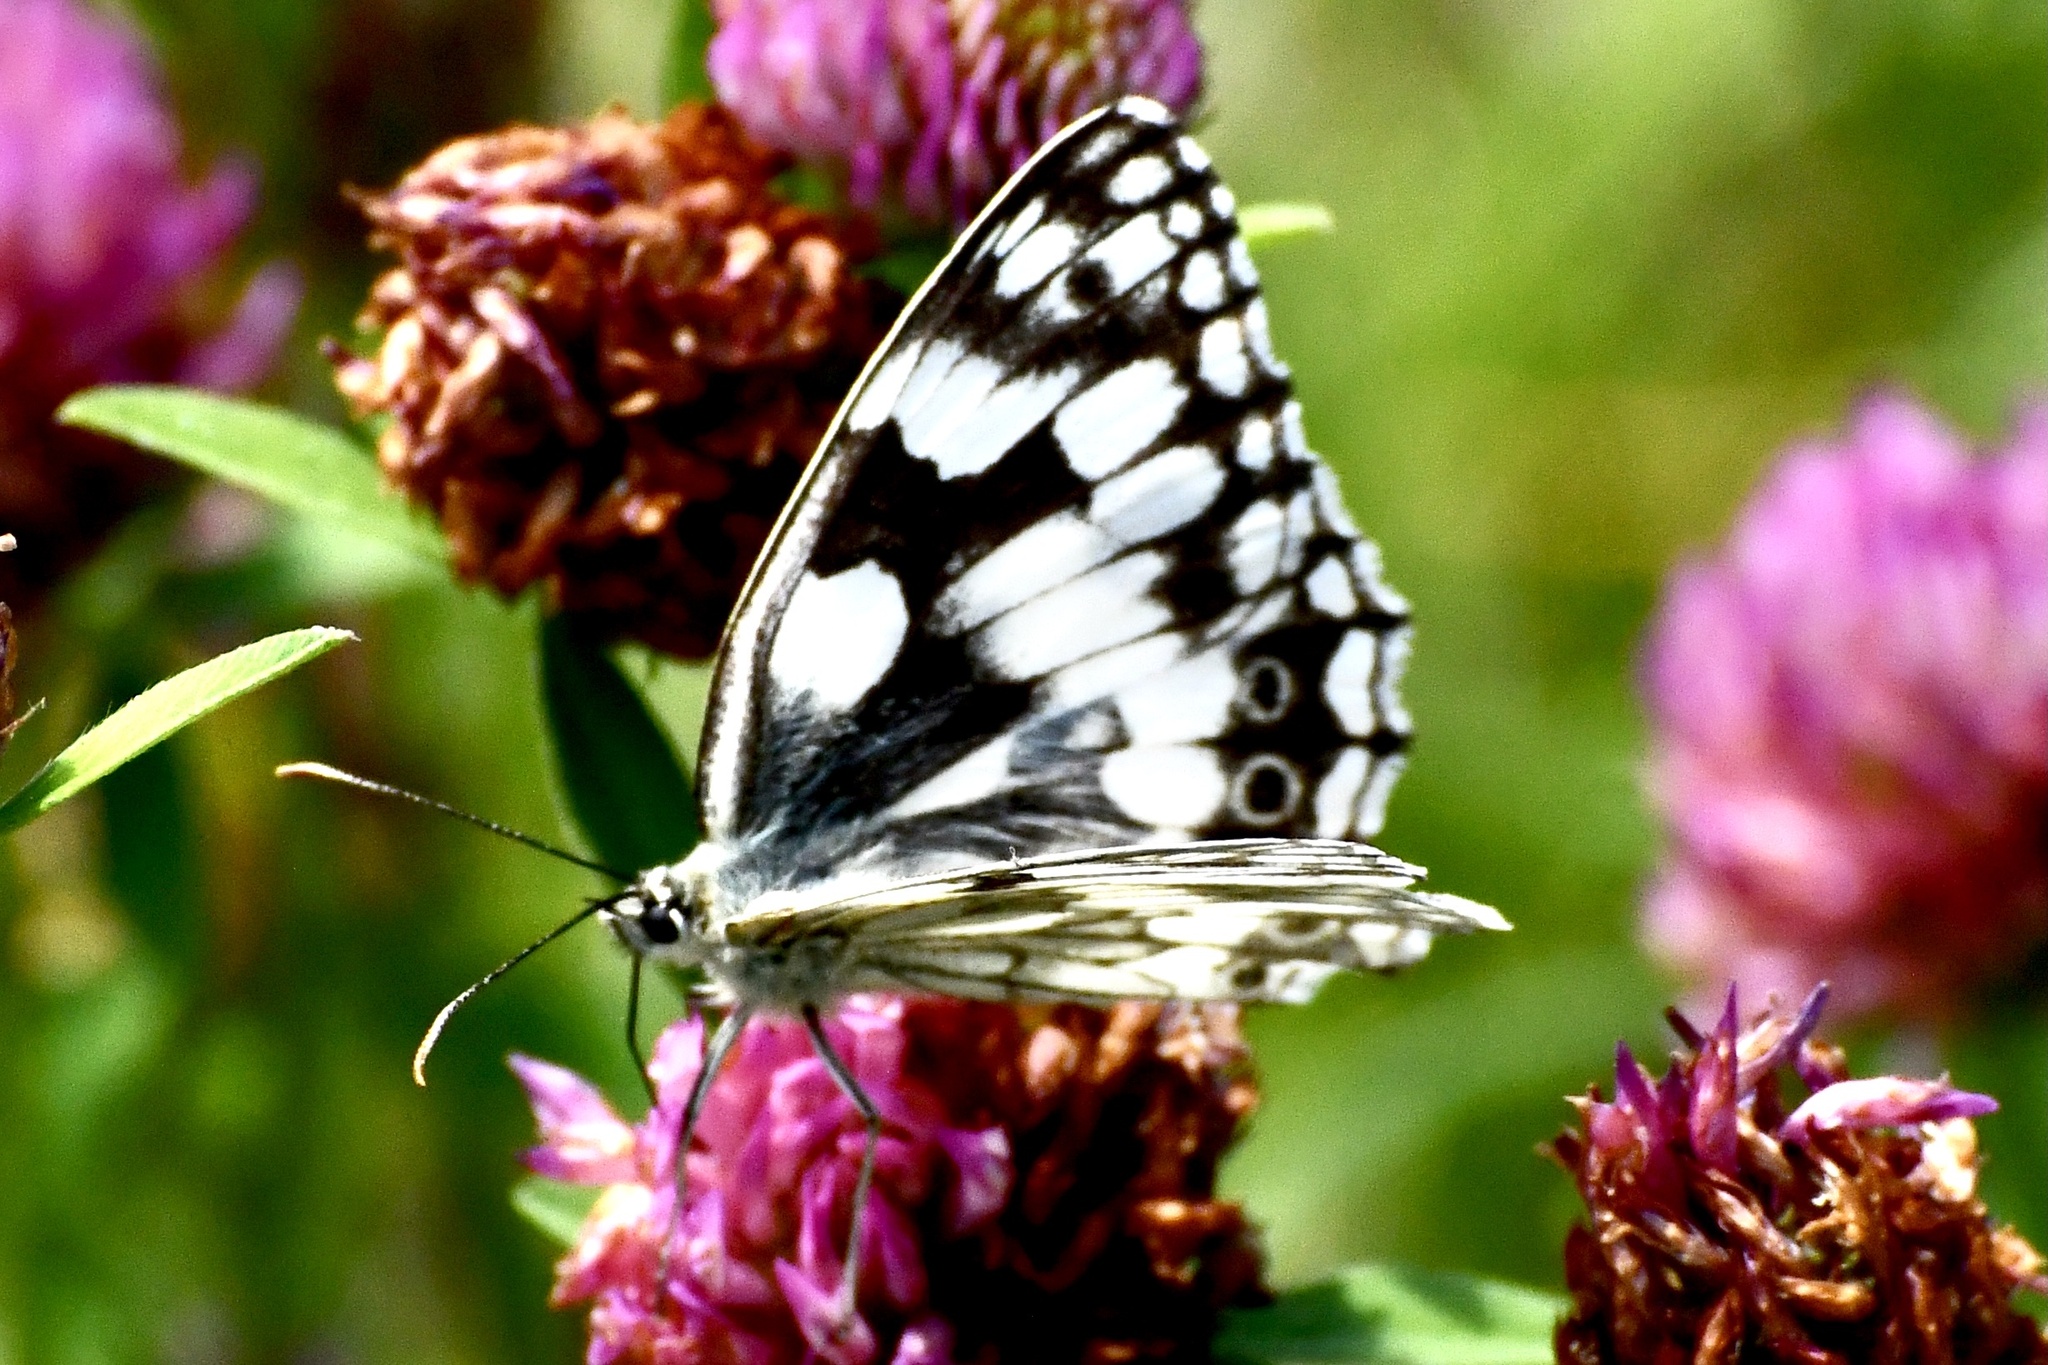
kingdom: Animalia
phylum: Arthropoda
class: Insecta
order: Lepidoptera
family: Nymphalidae
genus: Melanargia
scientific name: Melanargia galathea
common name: Marbled white
